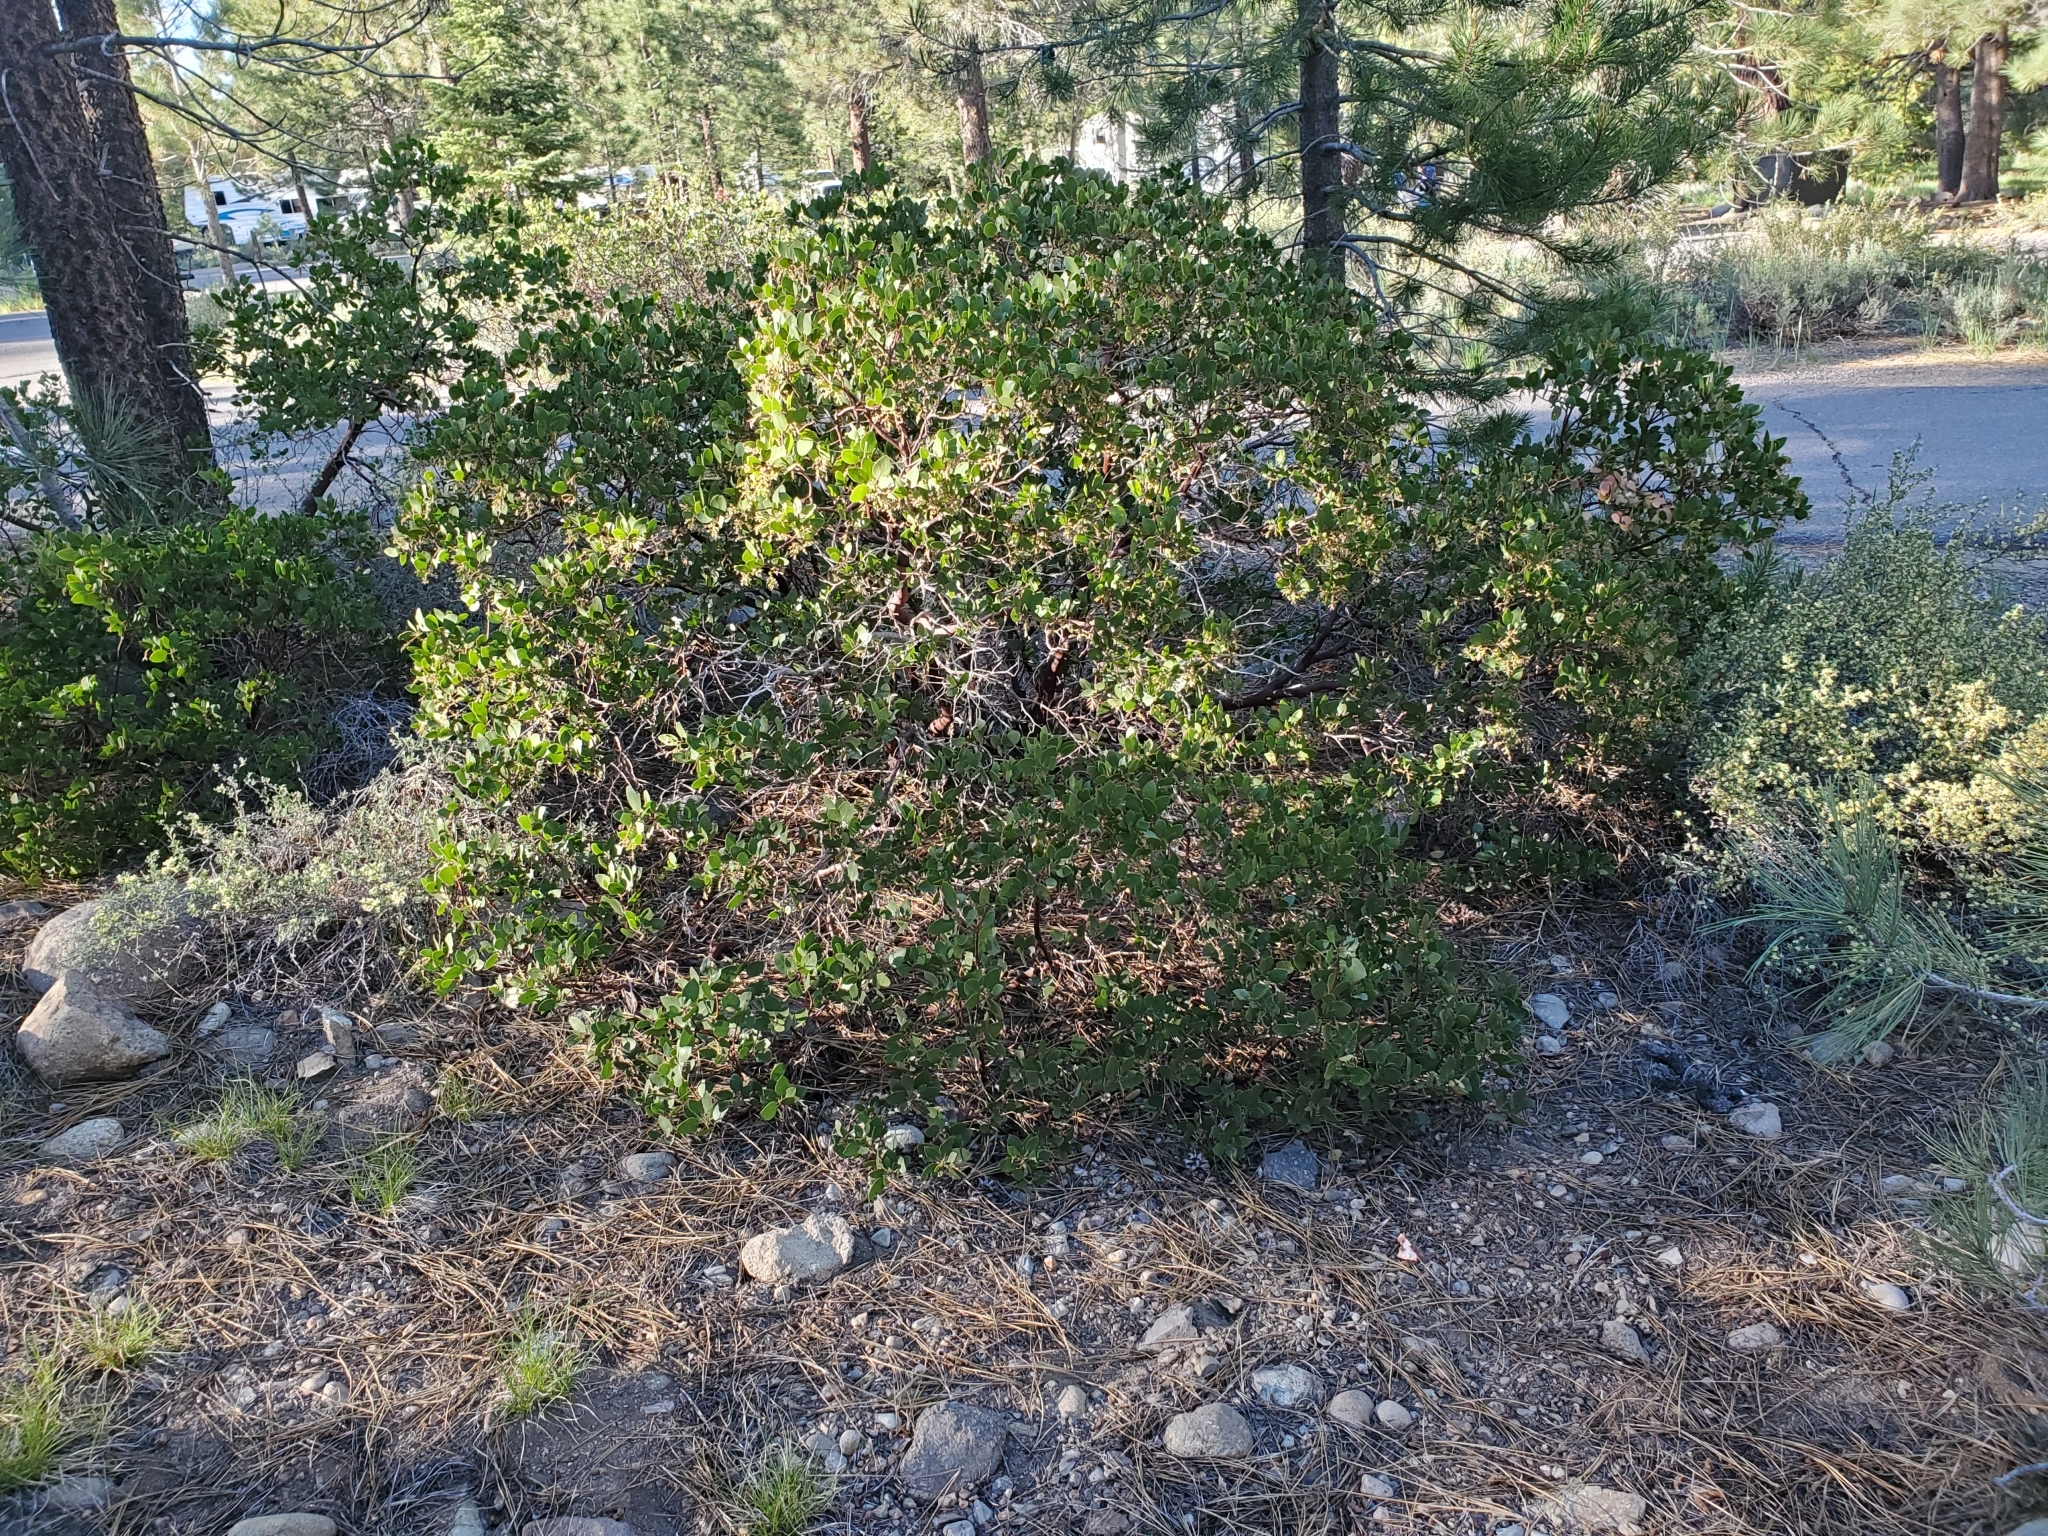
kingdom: Plantae
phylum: Tracheophyta
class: Magnoliopsida
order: Ericales
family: Ericaceae
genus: Arctostaphylos
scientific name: Arctostaphylos patula
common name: Green-leaf manzanita
